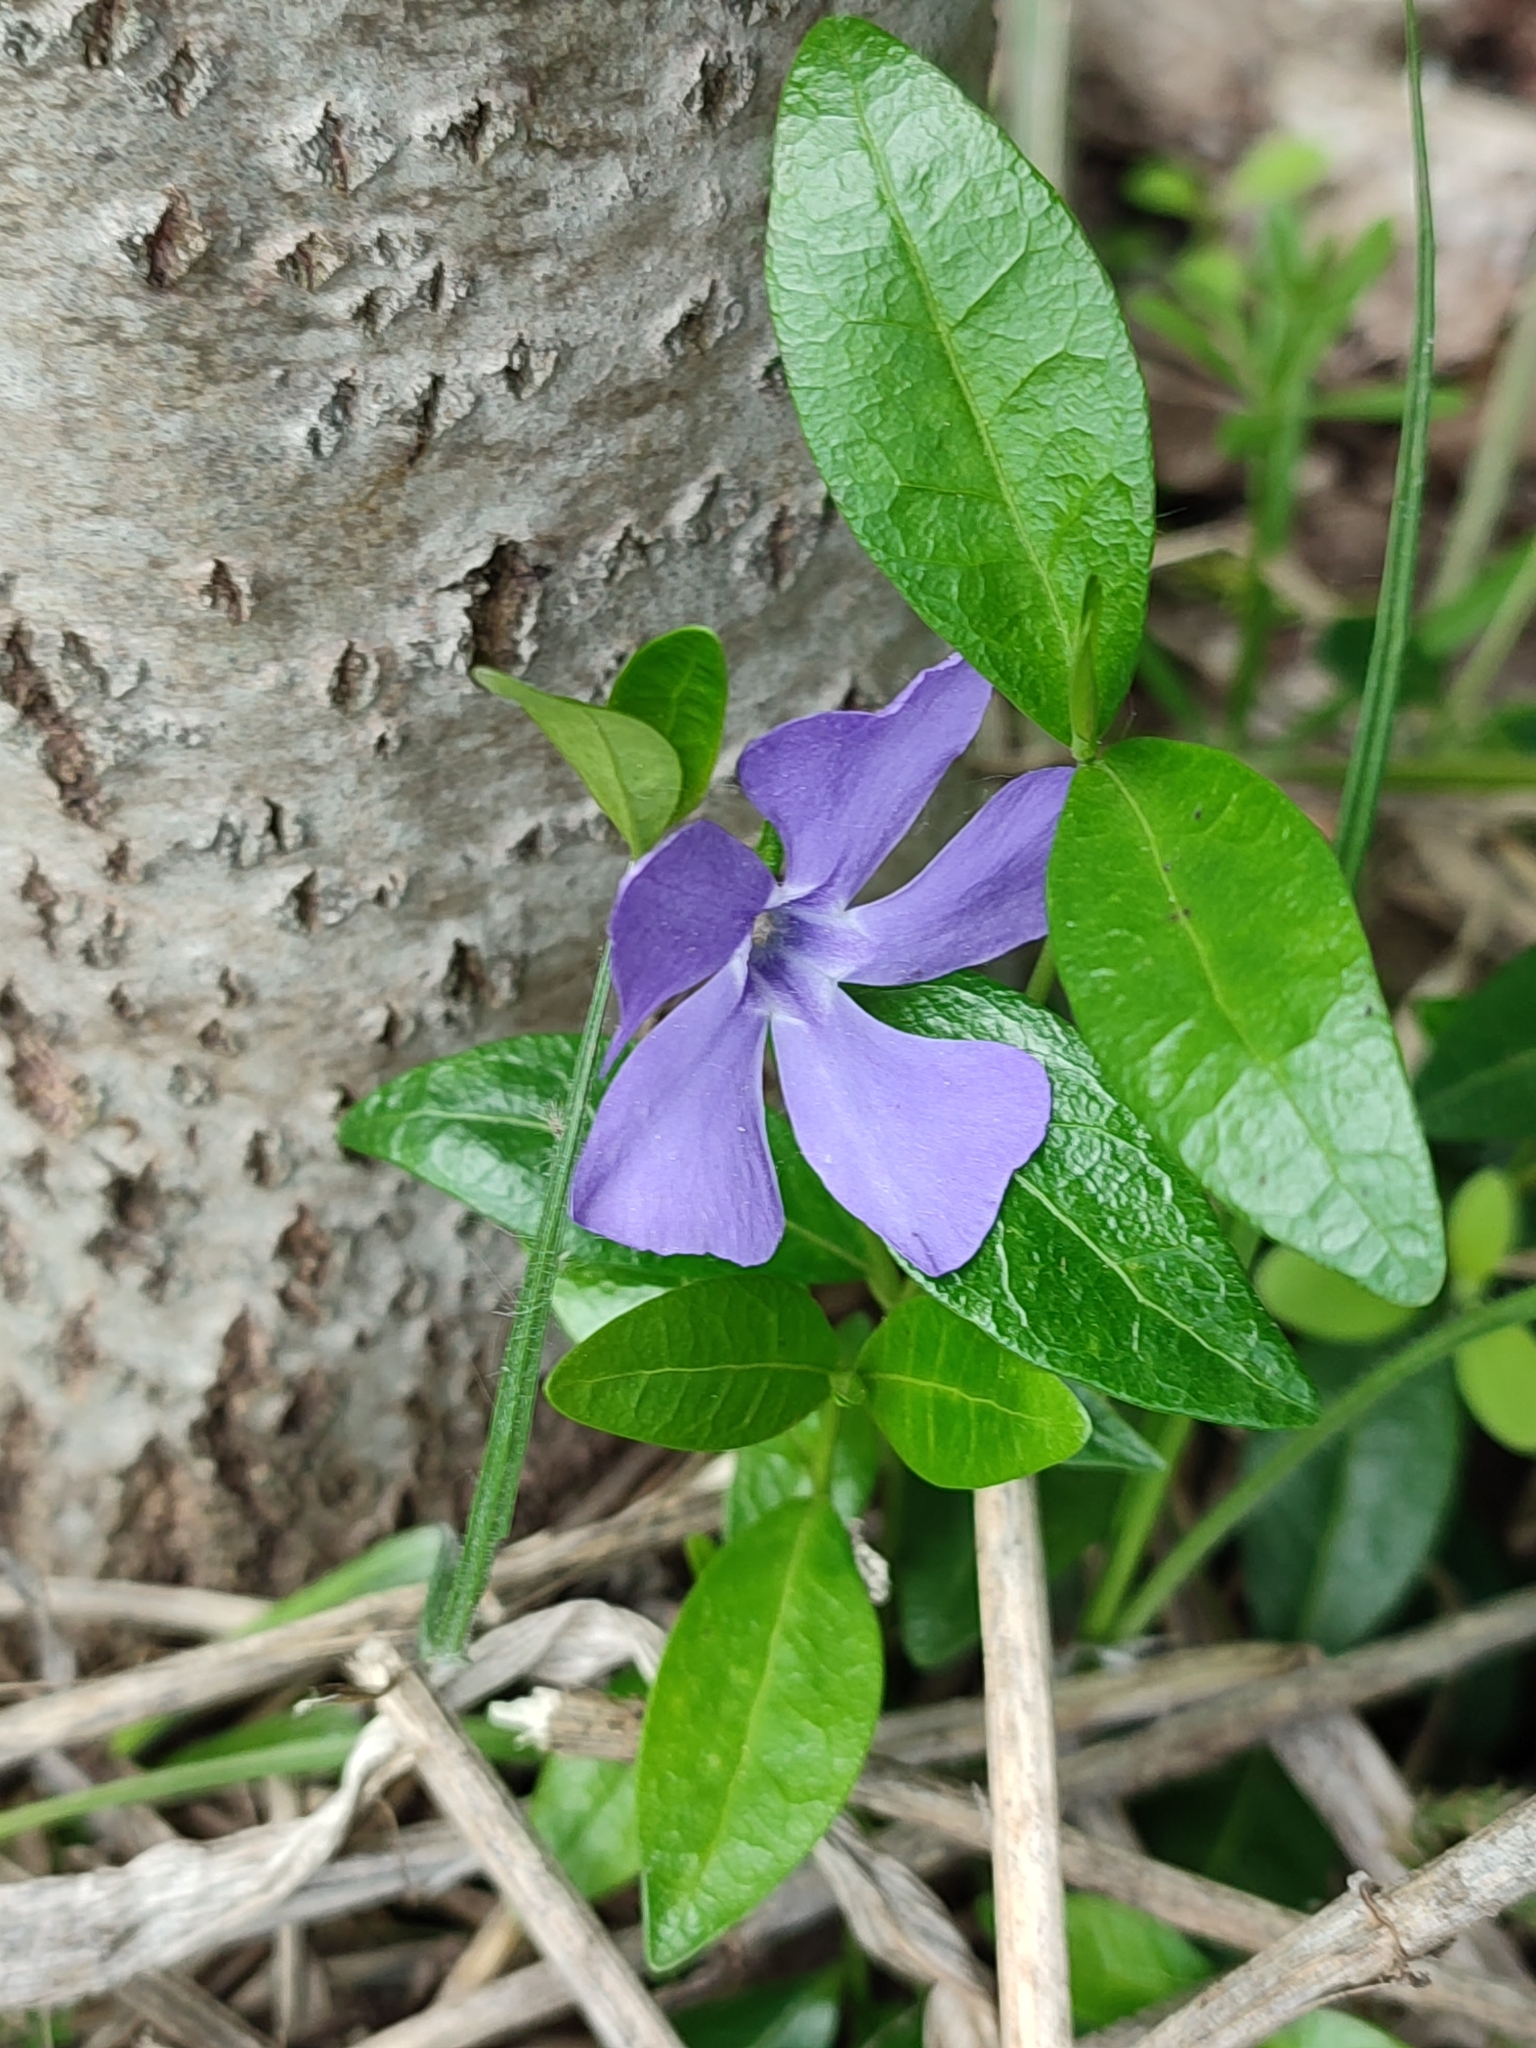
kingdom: Plantae
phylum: Tracheophyta
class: Magnoliopsida
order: Gentianales
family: Apocynaceae
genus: Vinca
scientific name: Vinca minor
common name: Lesser periwinkle
